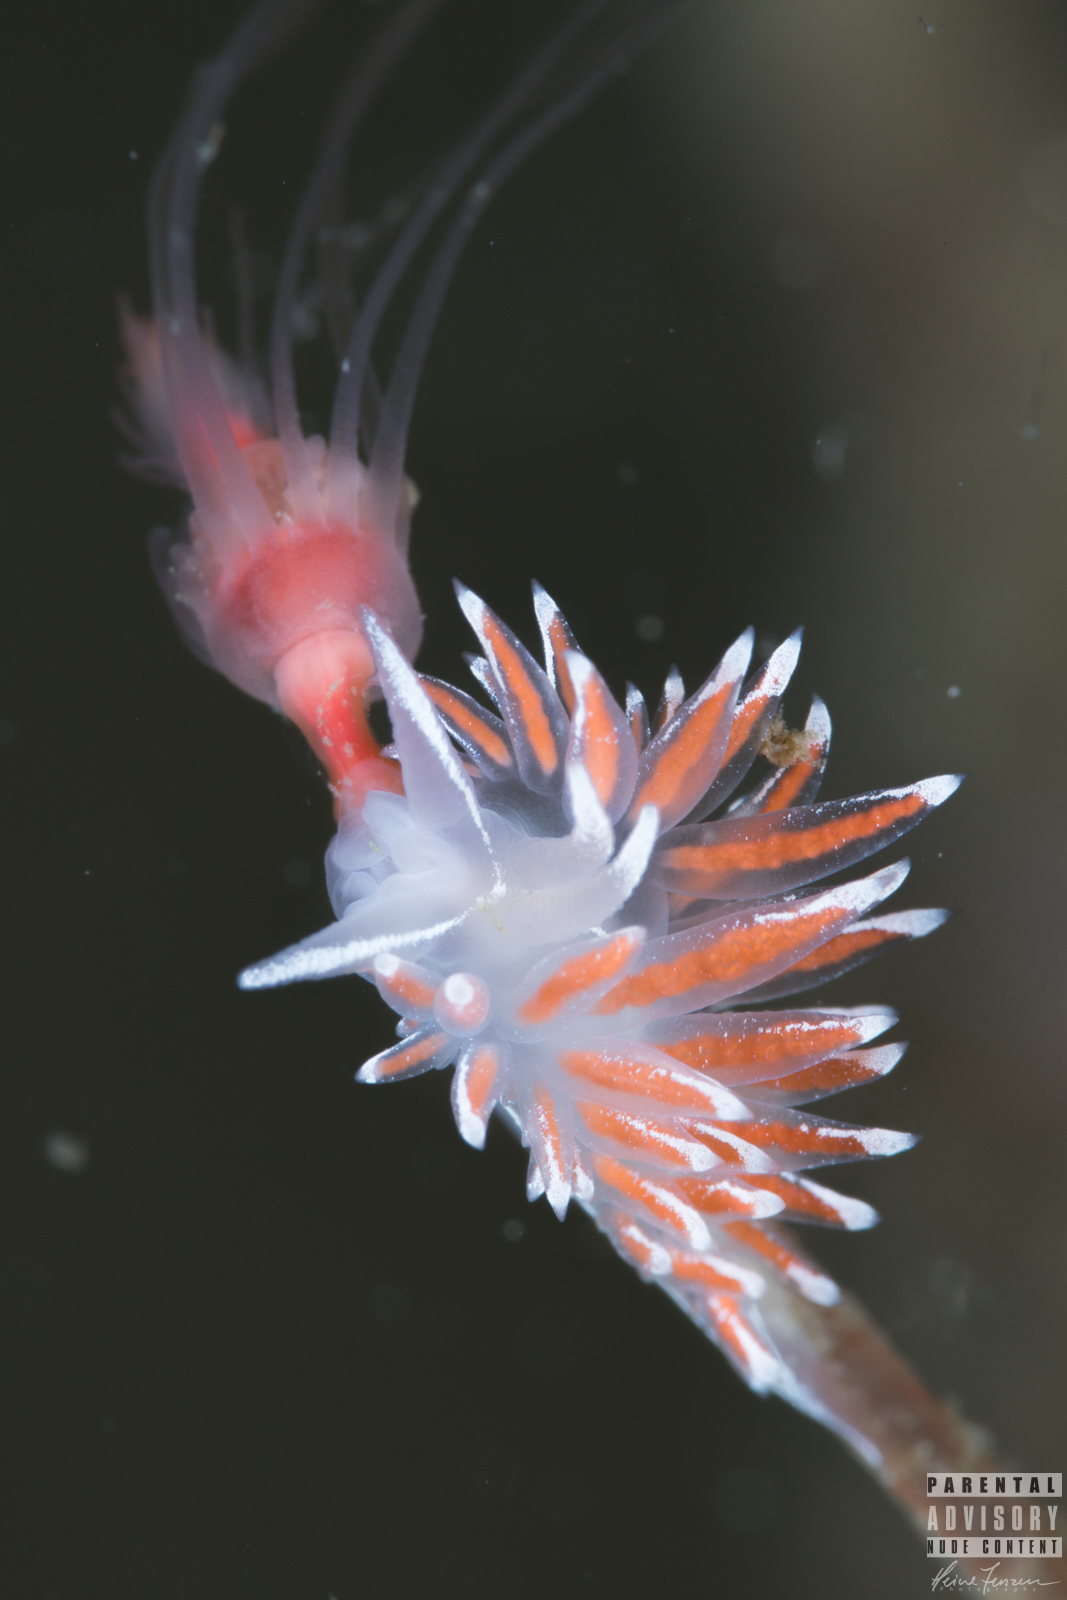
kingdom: Animalia
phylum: Mollusca
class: Gastropoda
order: Nudibranchia
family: Coryphellidae
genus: Coryphella
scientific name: Coryphella lineata
